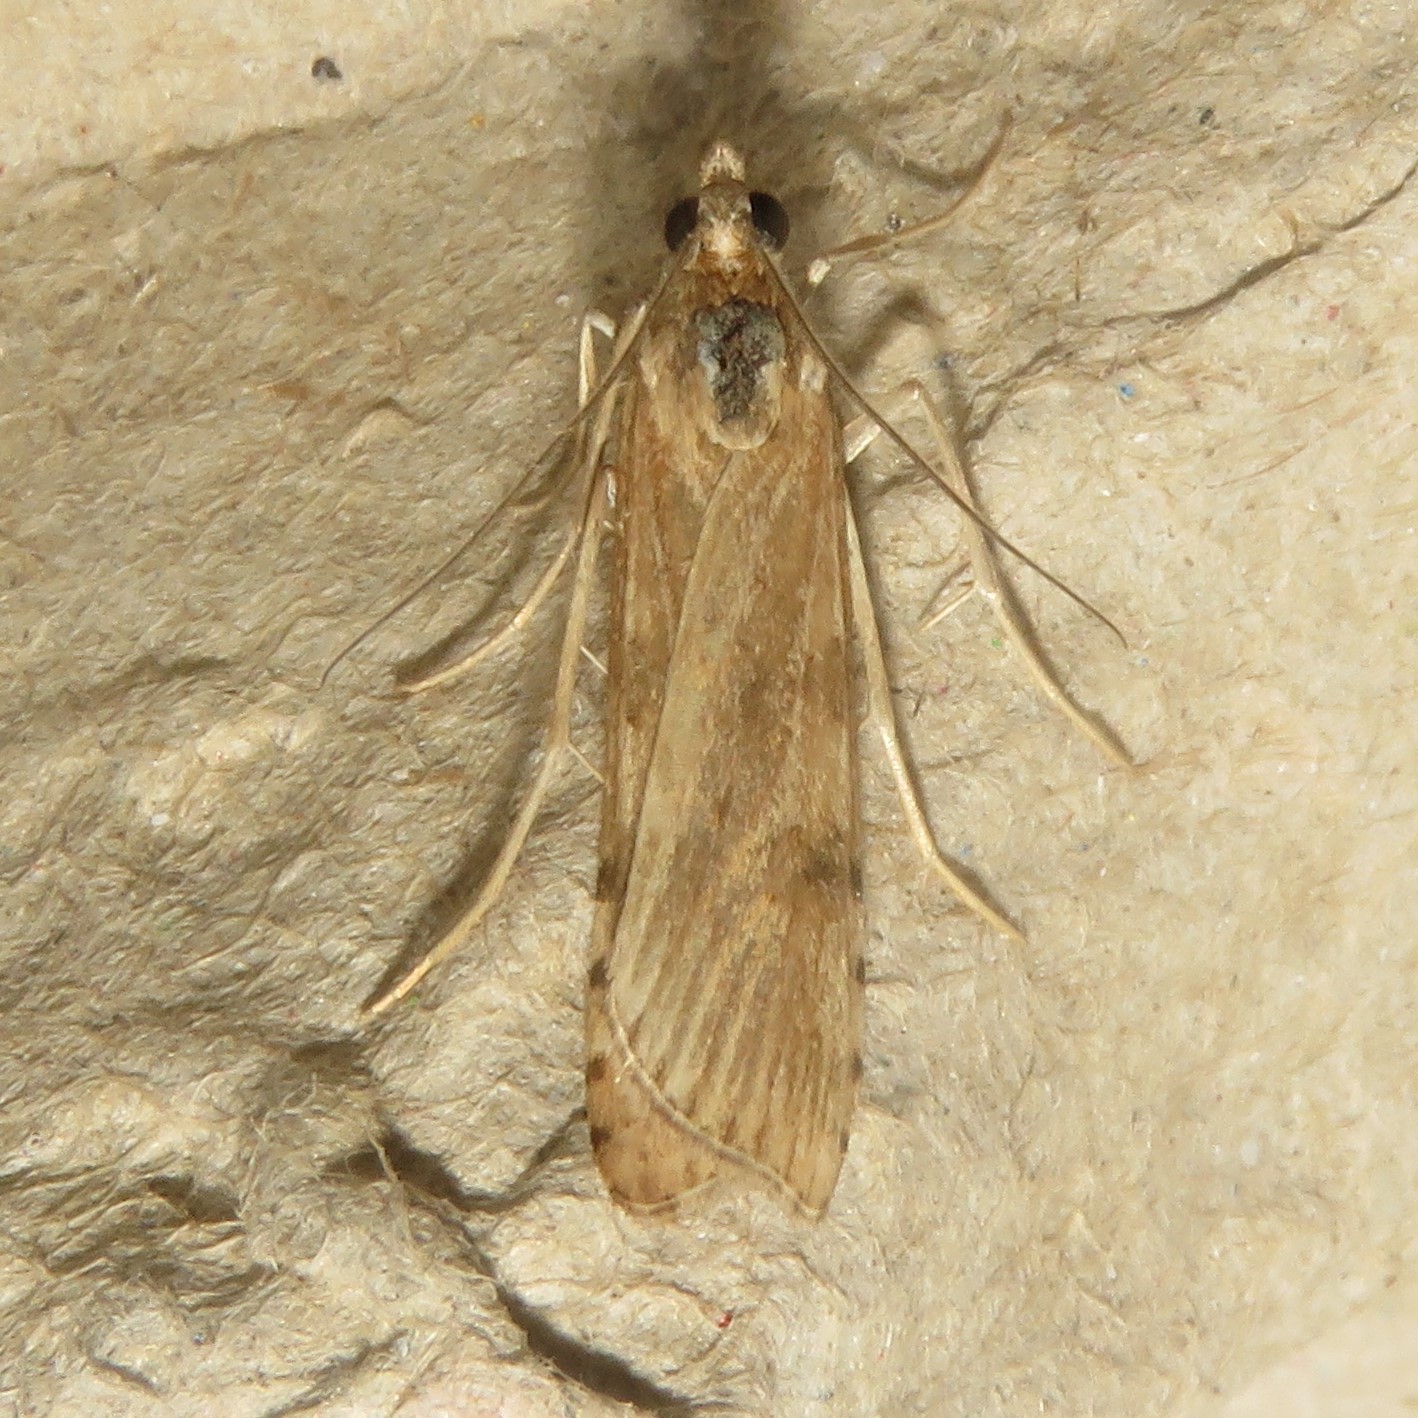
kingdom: Animalia
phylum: Arthropoda
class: Insecta
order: Lepidoptera
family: Crambidae
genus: Nomophila
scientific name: Nomophila nearctica
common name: American rush veneer
